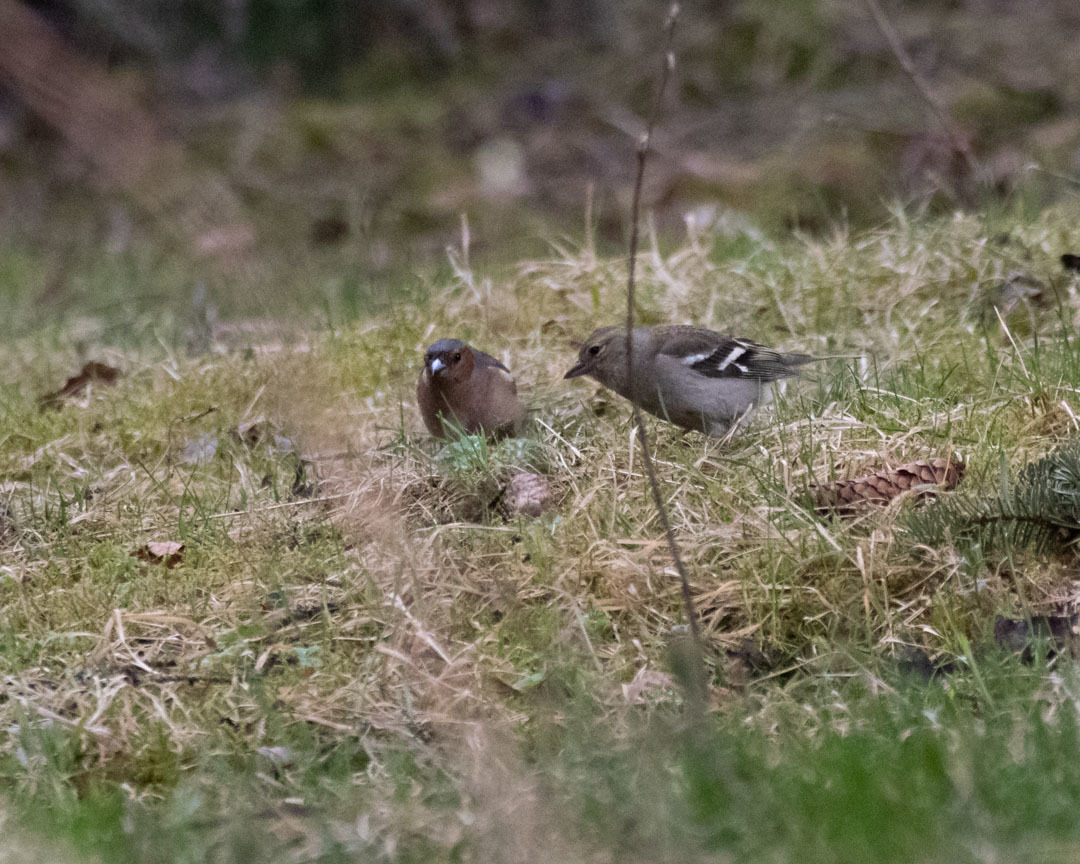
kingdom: Animalia
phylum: Chordata
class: Aves
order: Passeriformes
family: Fringillidae
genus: Fringilla
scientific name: Fringilla coelebs
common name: Common chaffinch
